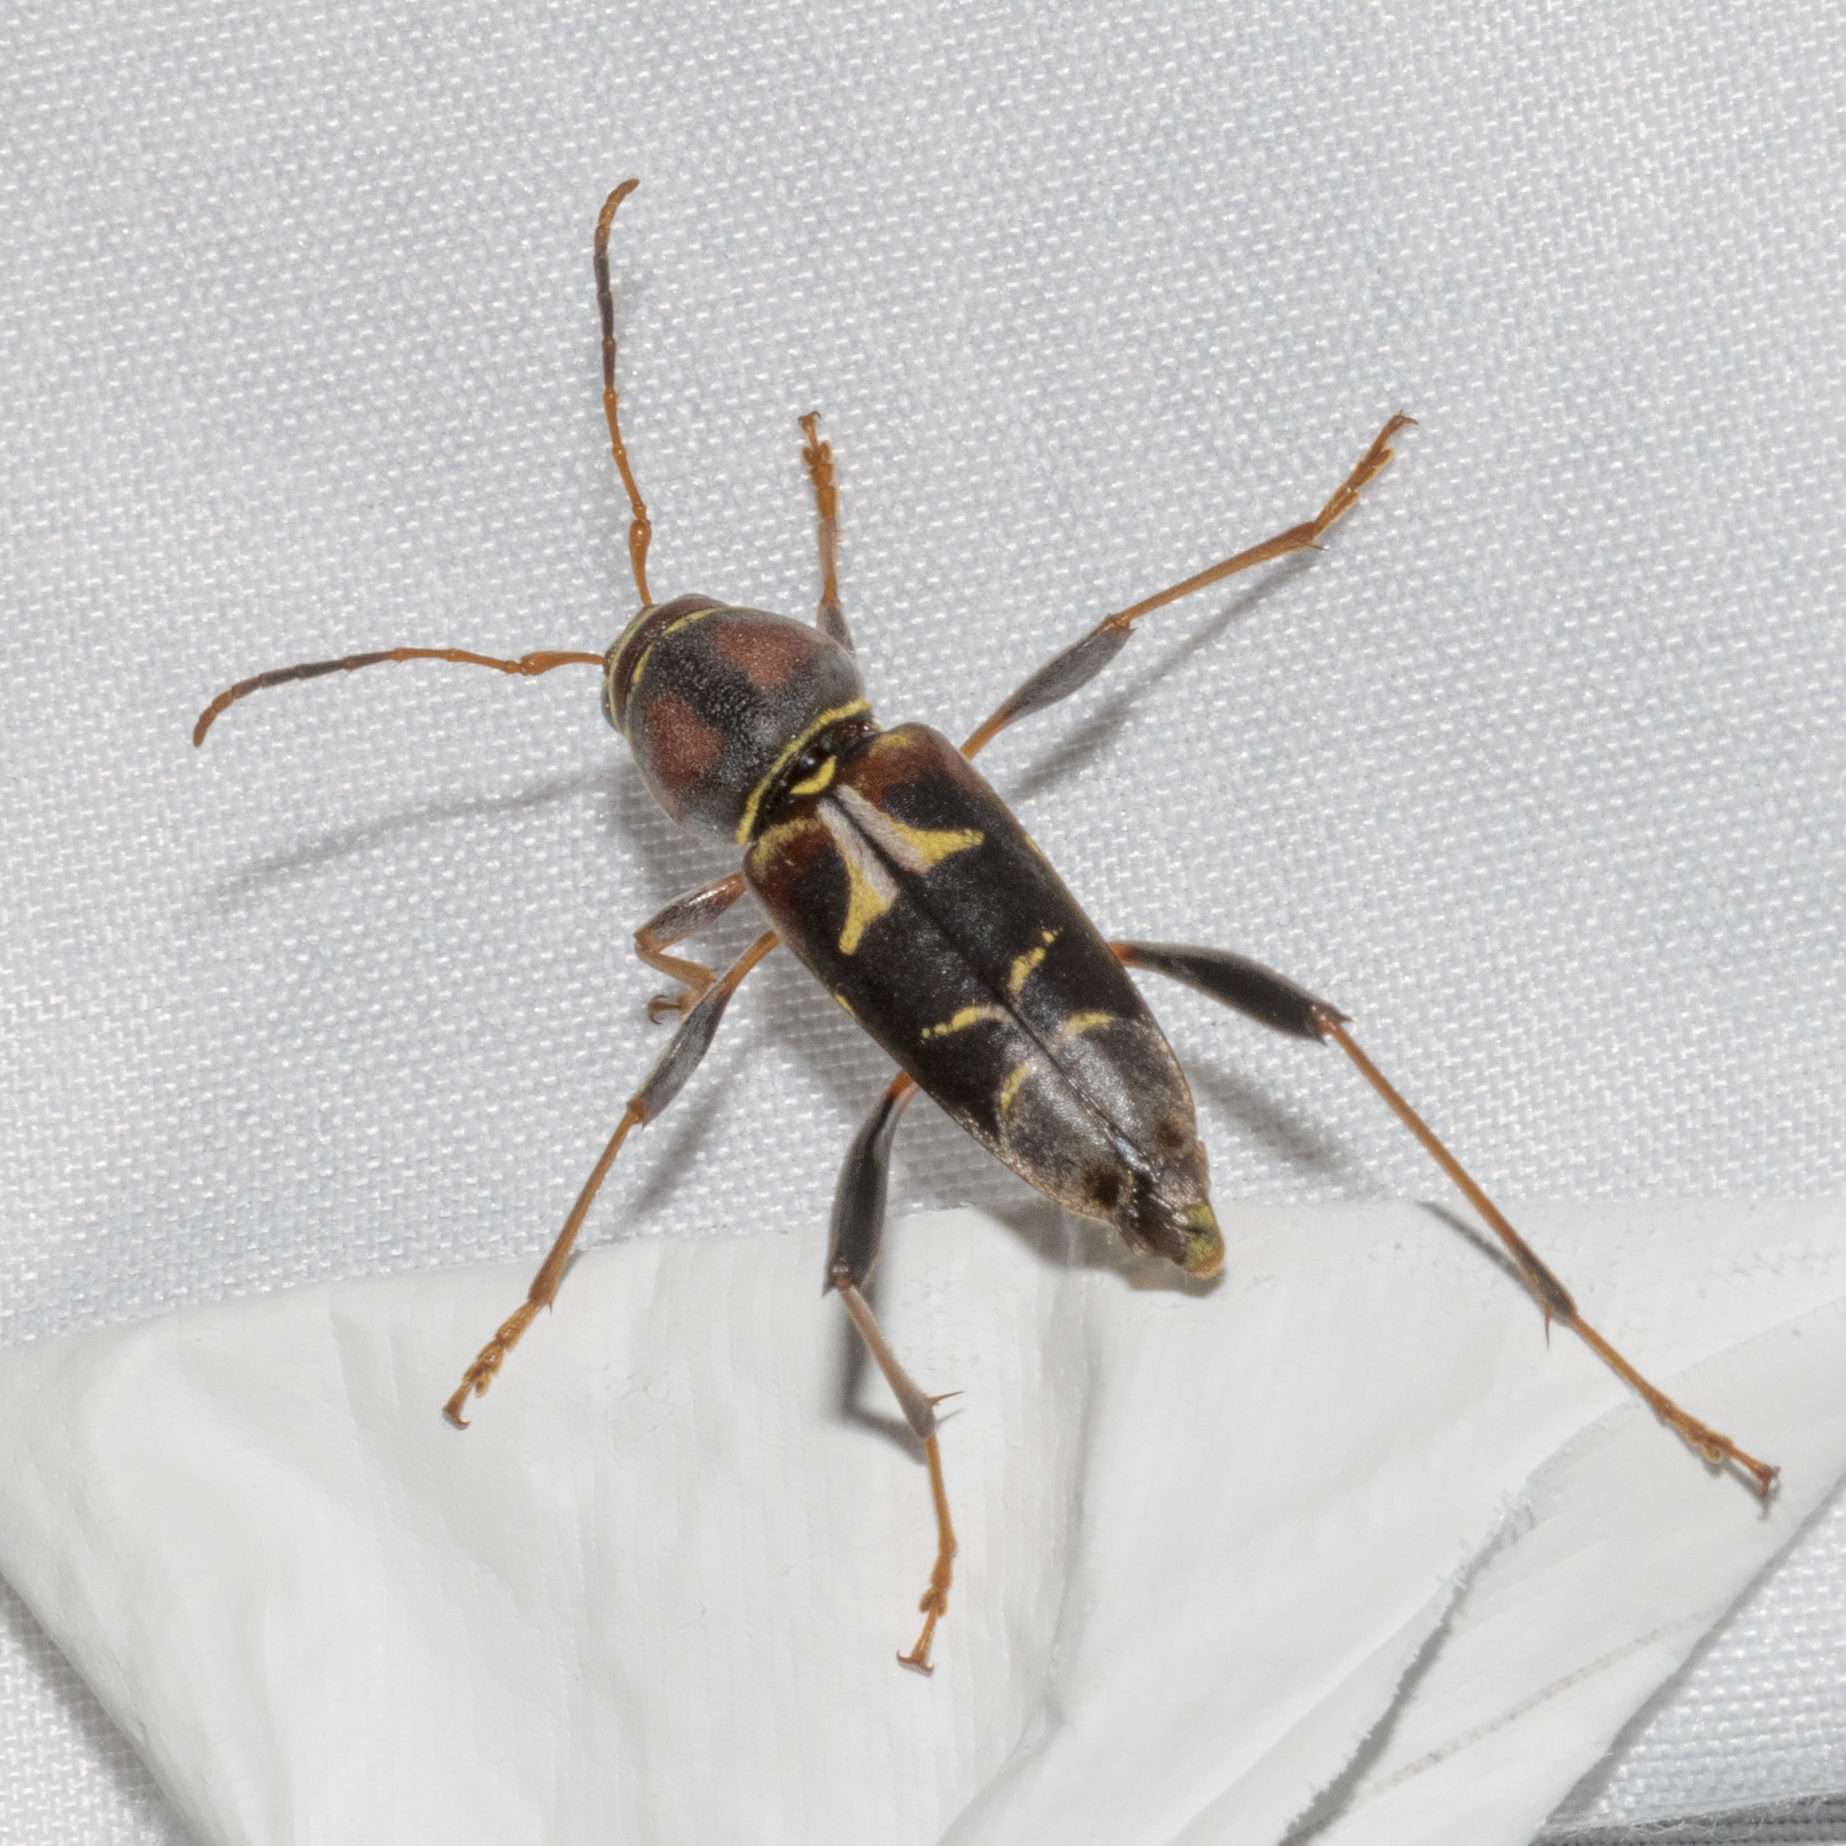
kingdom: Animalia
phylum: Arthropoda
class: Insecta
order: Coleoptera
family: Cerambycidae
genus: Neoclytus
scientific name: Neoclytus mucronatus
